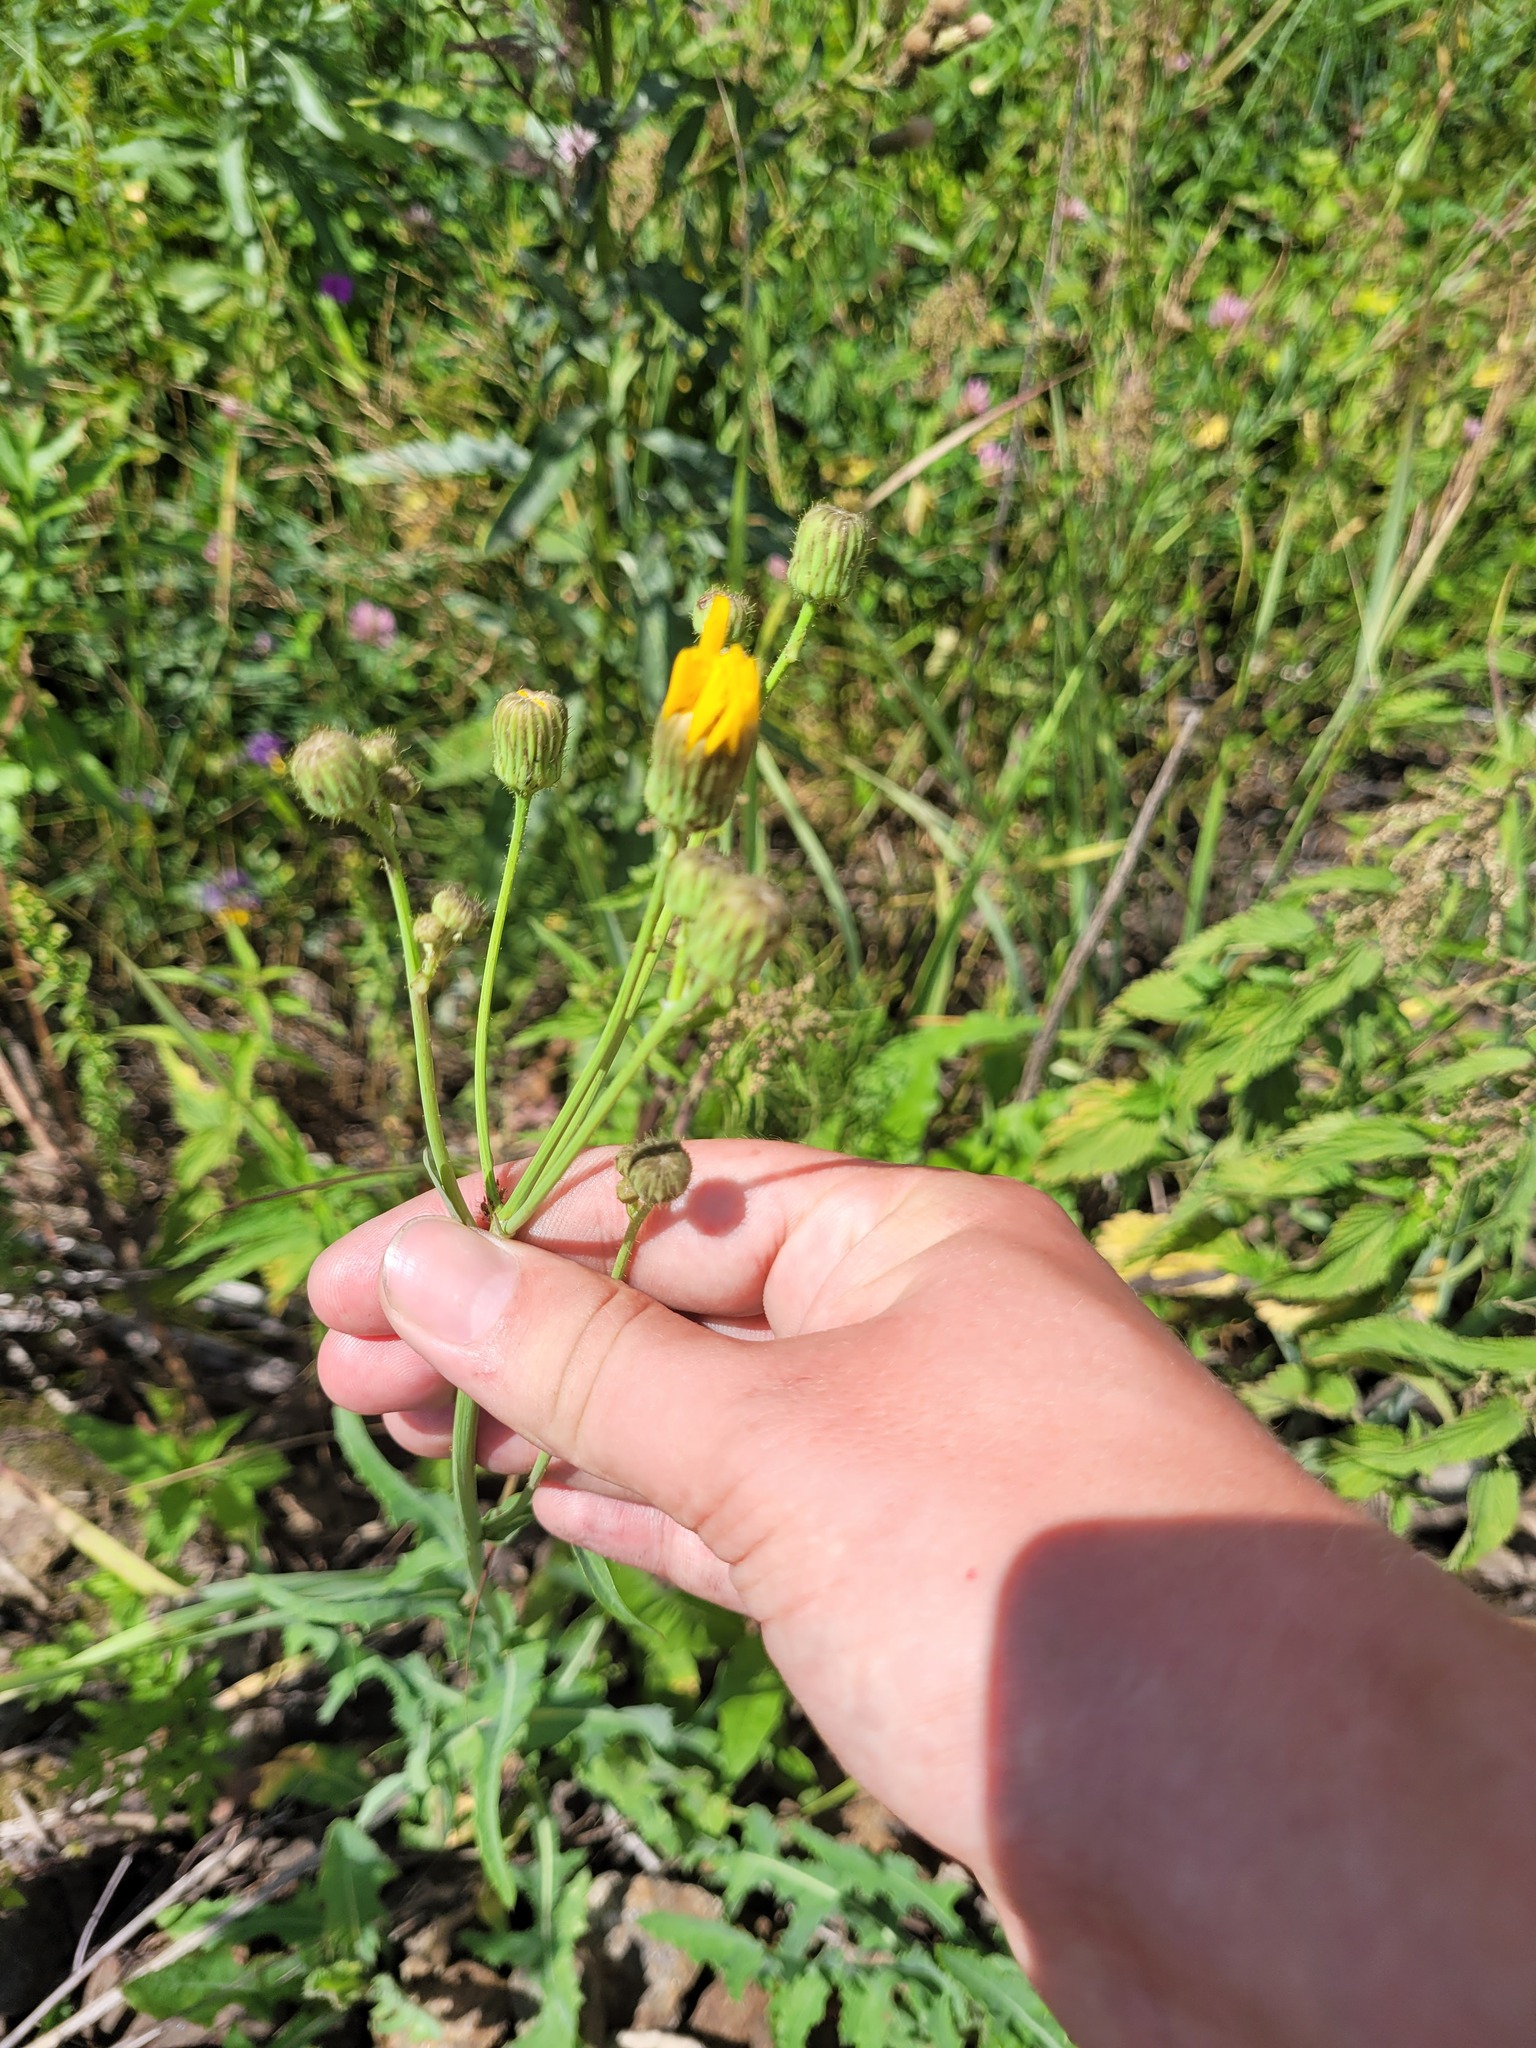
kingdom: Plantae
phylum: Tracheophyta
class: Magnoliopsida
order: Asterales
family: Asteraceae
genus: Sonchus
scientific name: Sonchus arvensis
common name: Perennial sow-thistle
